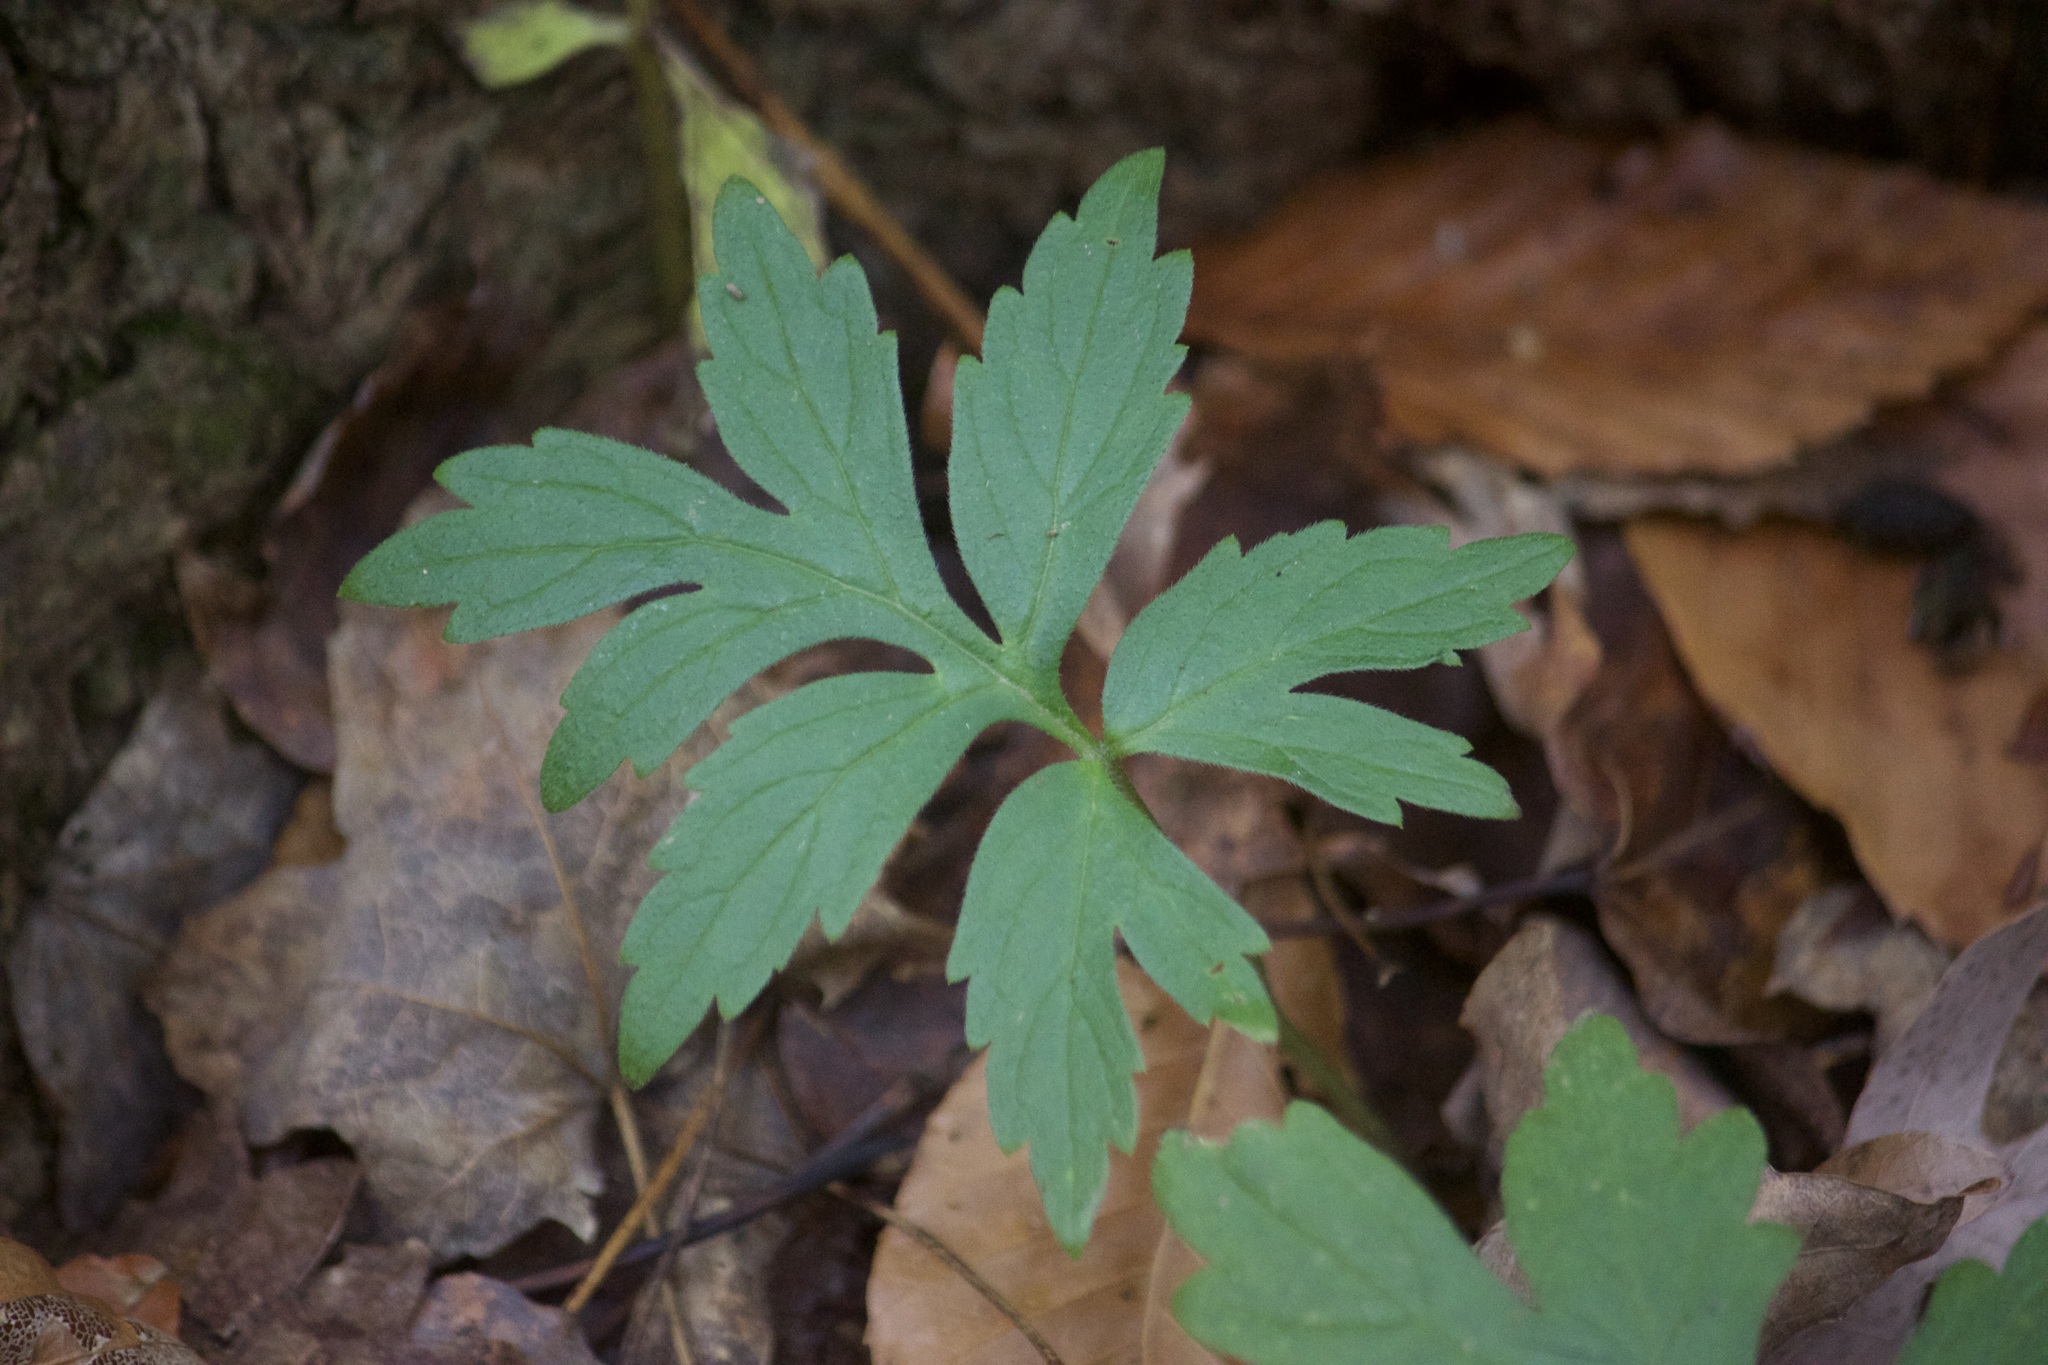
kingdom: Plantae
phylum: Tracheophyta
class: Magnoliopsida
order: Boraginales
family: Hydrophyllaceae
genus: Hydrophyllum
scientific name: Hydrophyllum virginianum
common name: Virginia waterleaf
